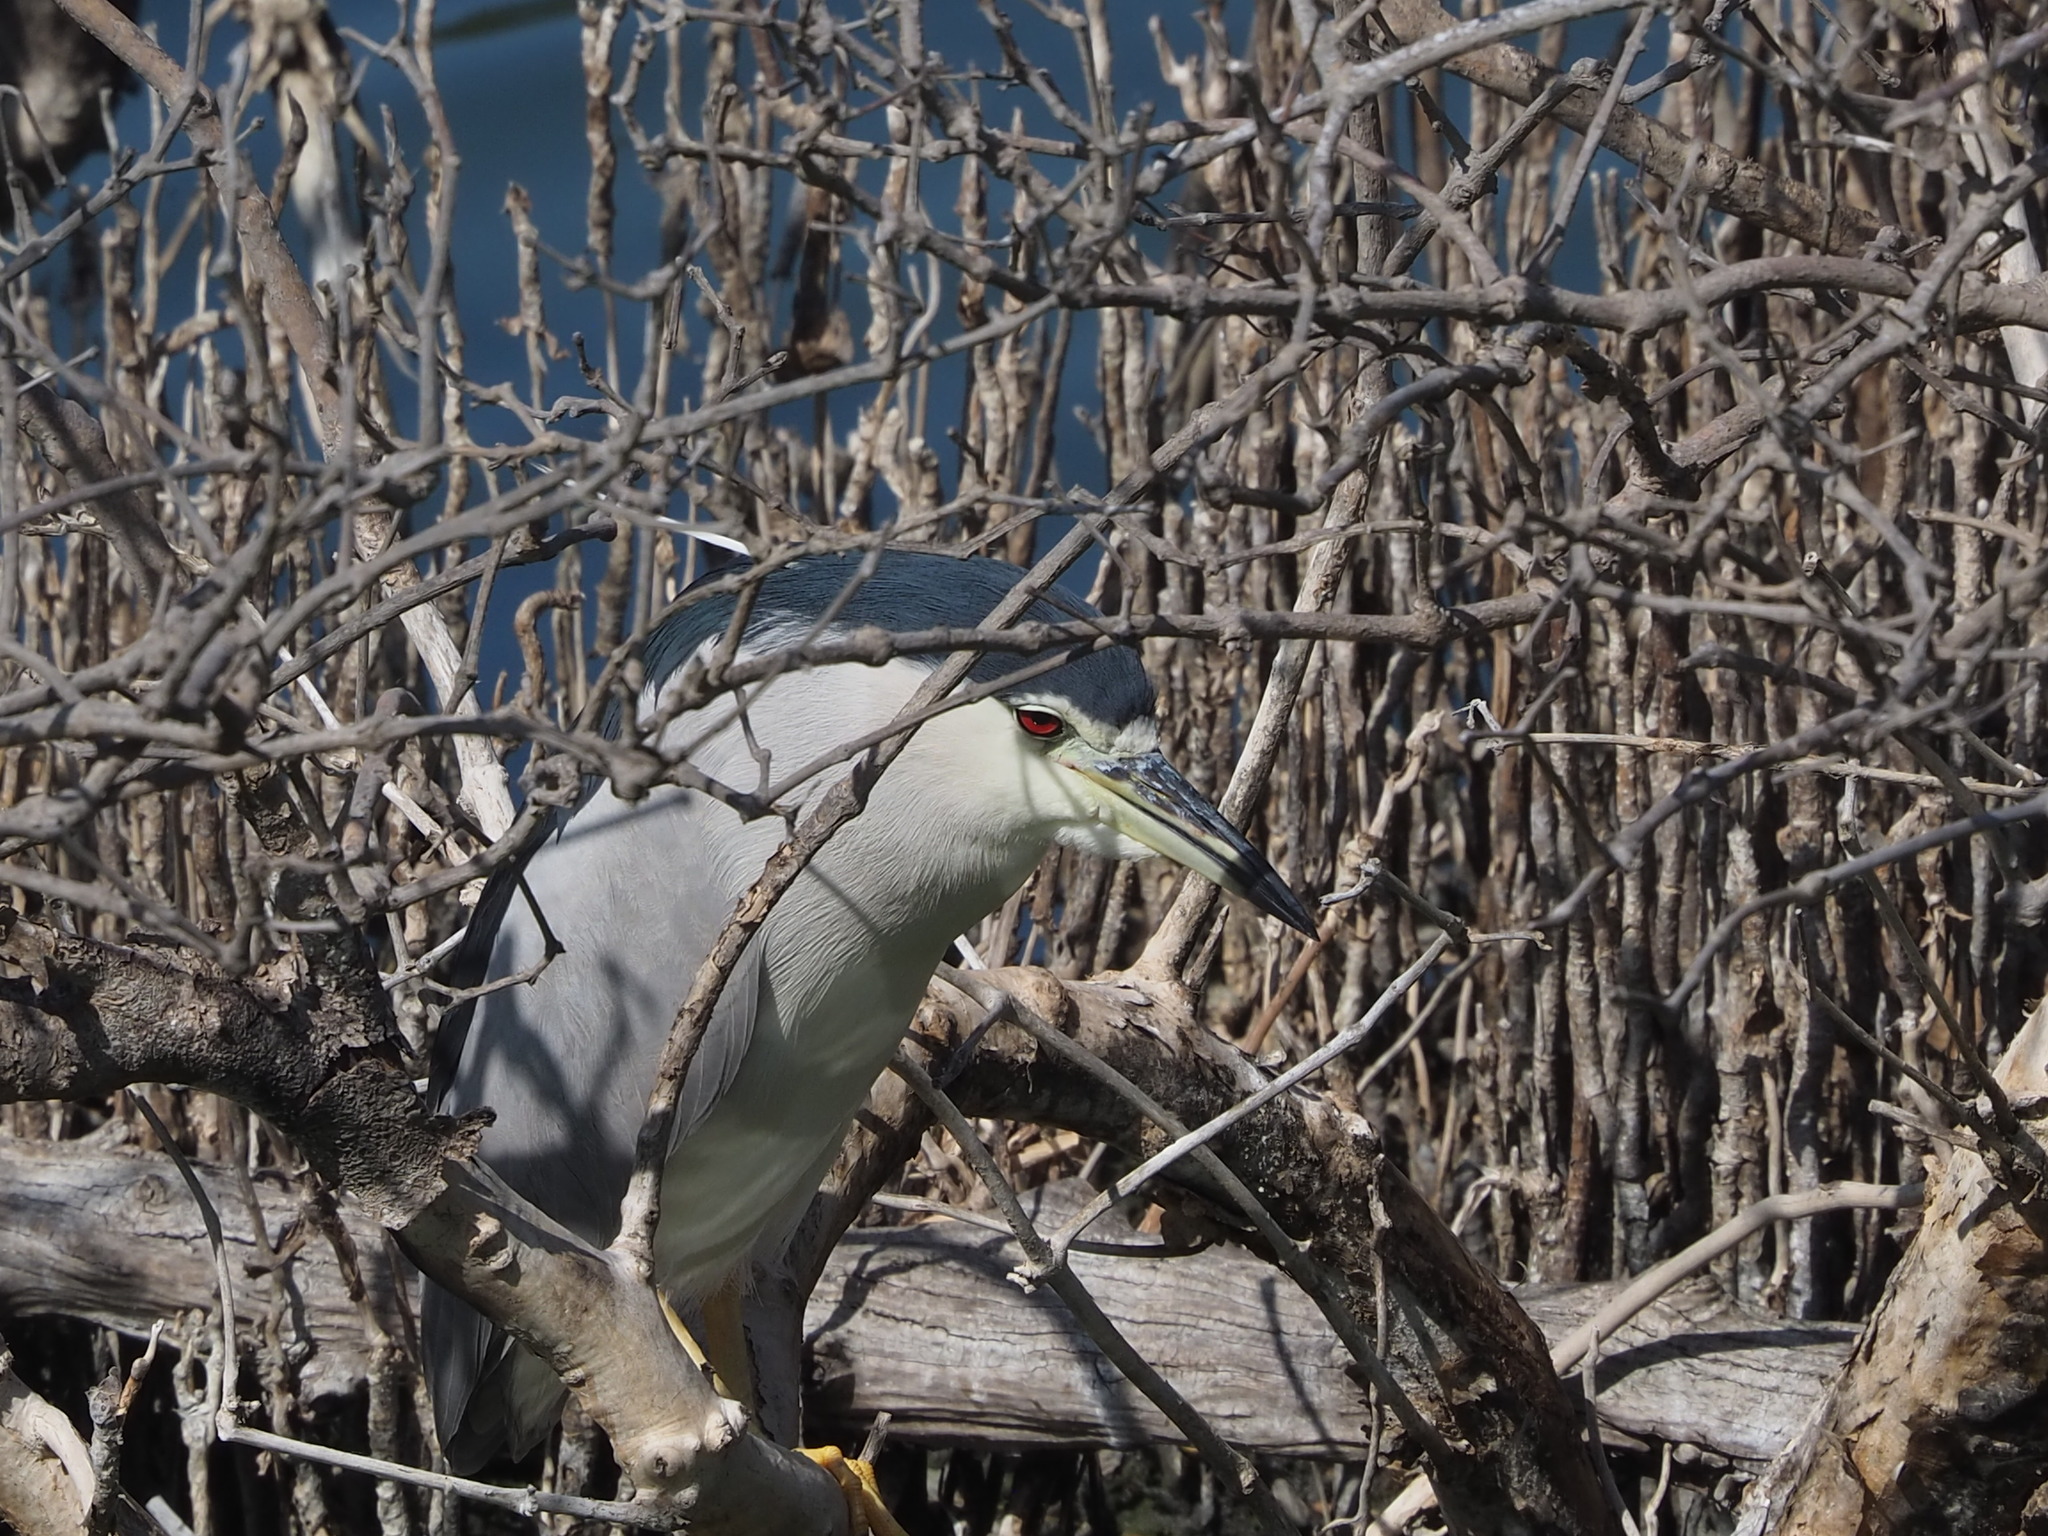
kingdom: Animalia
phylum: Chordata
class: Aves
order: Pelecaniformes
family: Ardeidae
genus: Nycticorax
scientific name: Nycticorax nycticorax
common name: Black-crowned night heron
